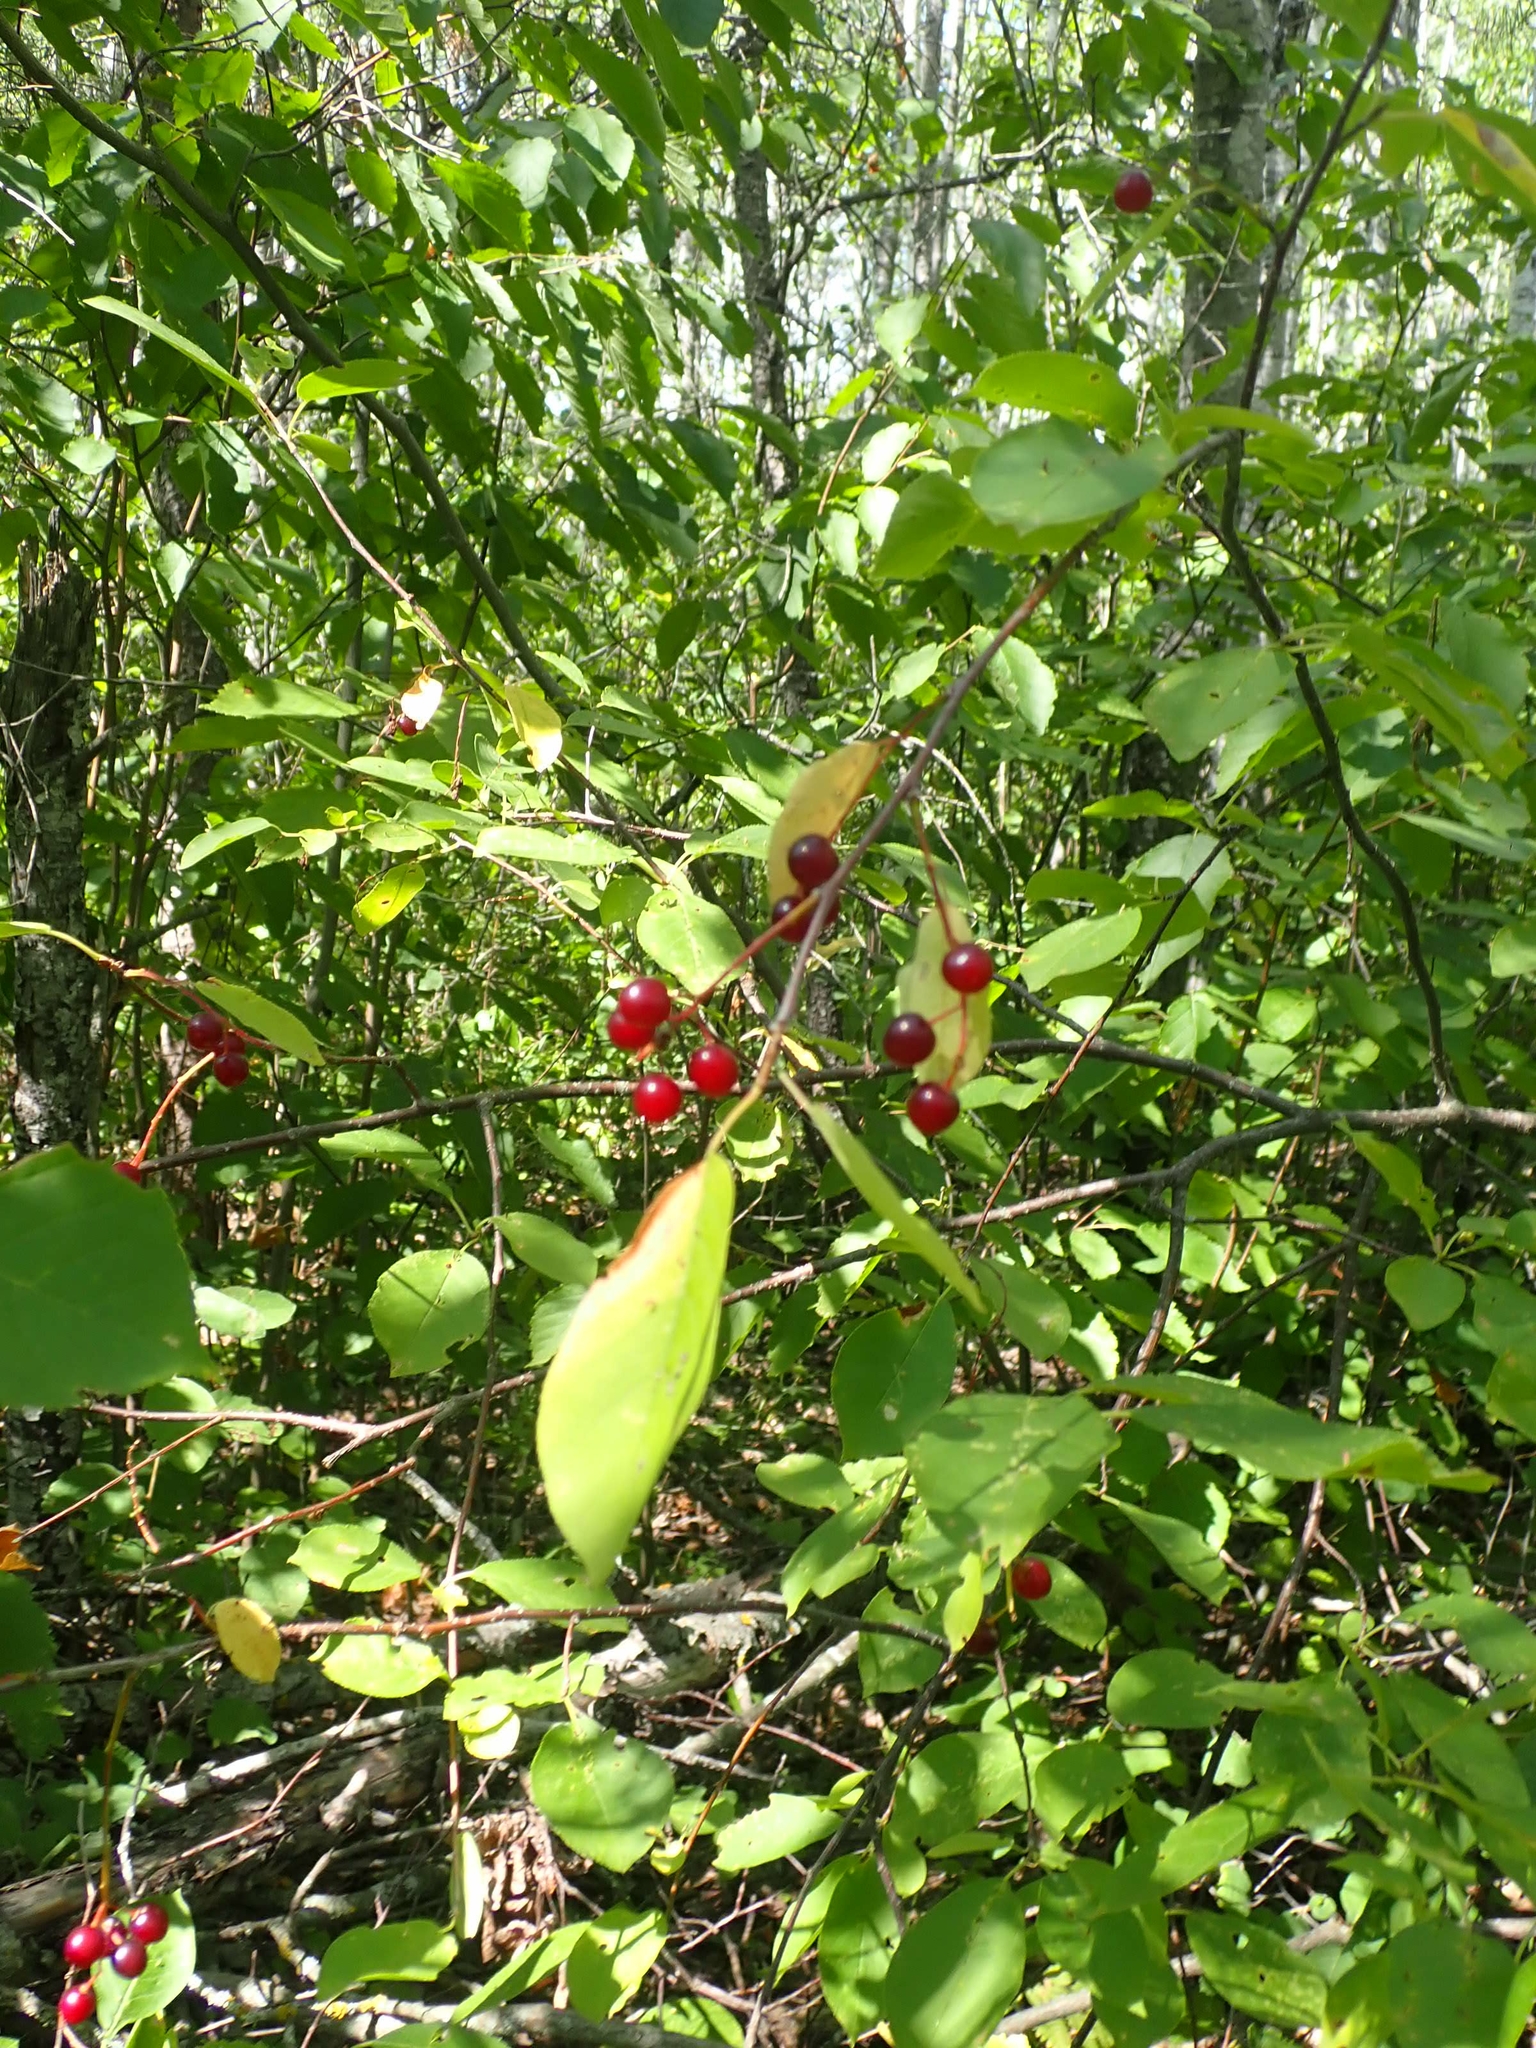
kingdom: Plantae
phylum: Tracheophyta
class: Magnoliopsida
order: Rosales
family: Rosaceae
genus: Prunus
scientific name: Prunus virginiana
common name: Chokecherry
